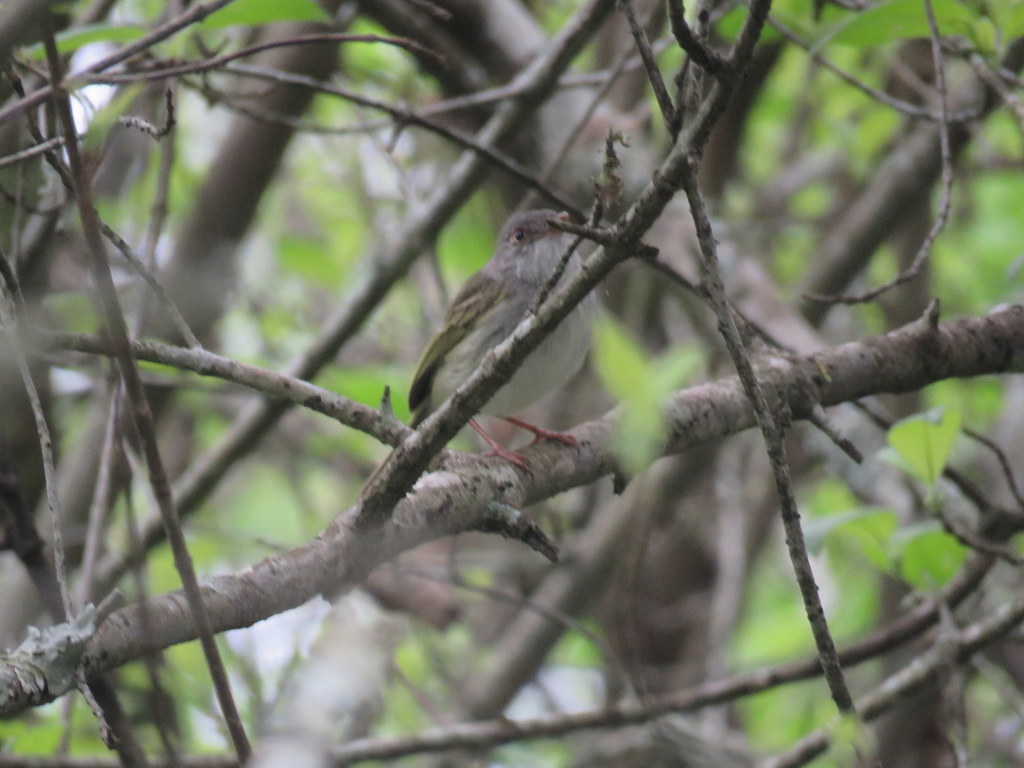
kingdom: Animalia
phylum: Chordata
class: Aves
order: Passeriformes
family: Tyrannidae
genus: Hemitriccus
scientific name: Hemitriccus margaritaceiventer
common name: Pearly-vented tody-tyrant
